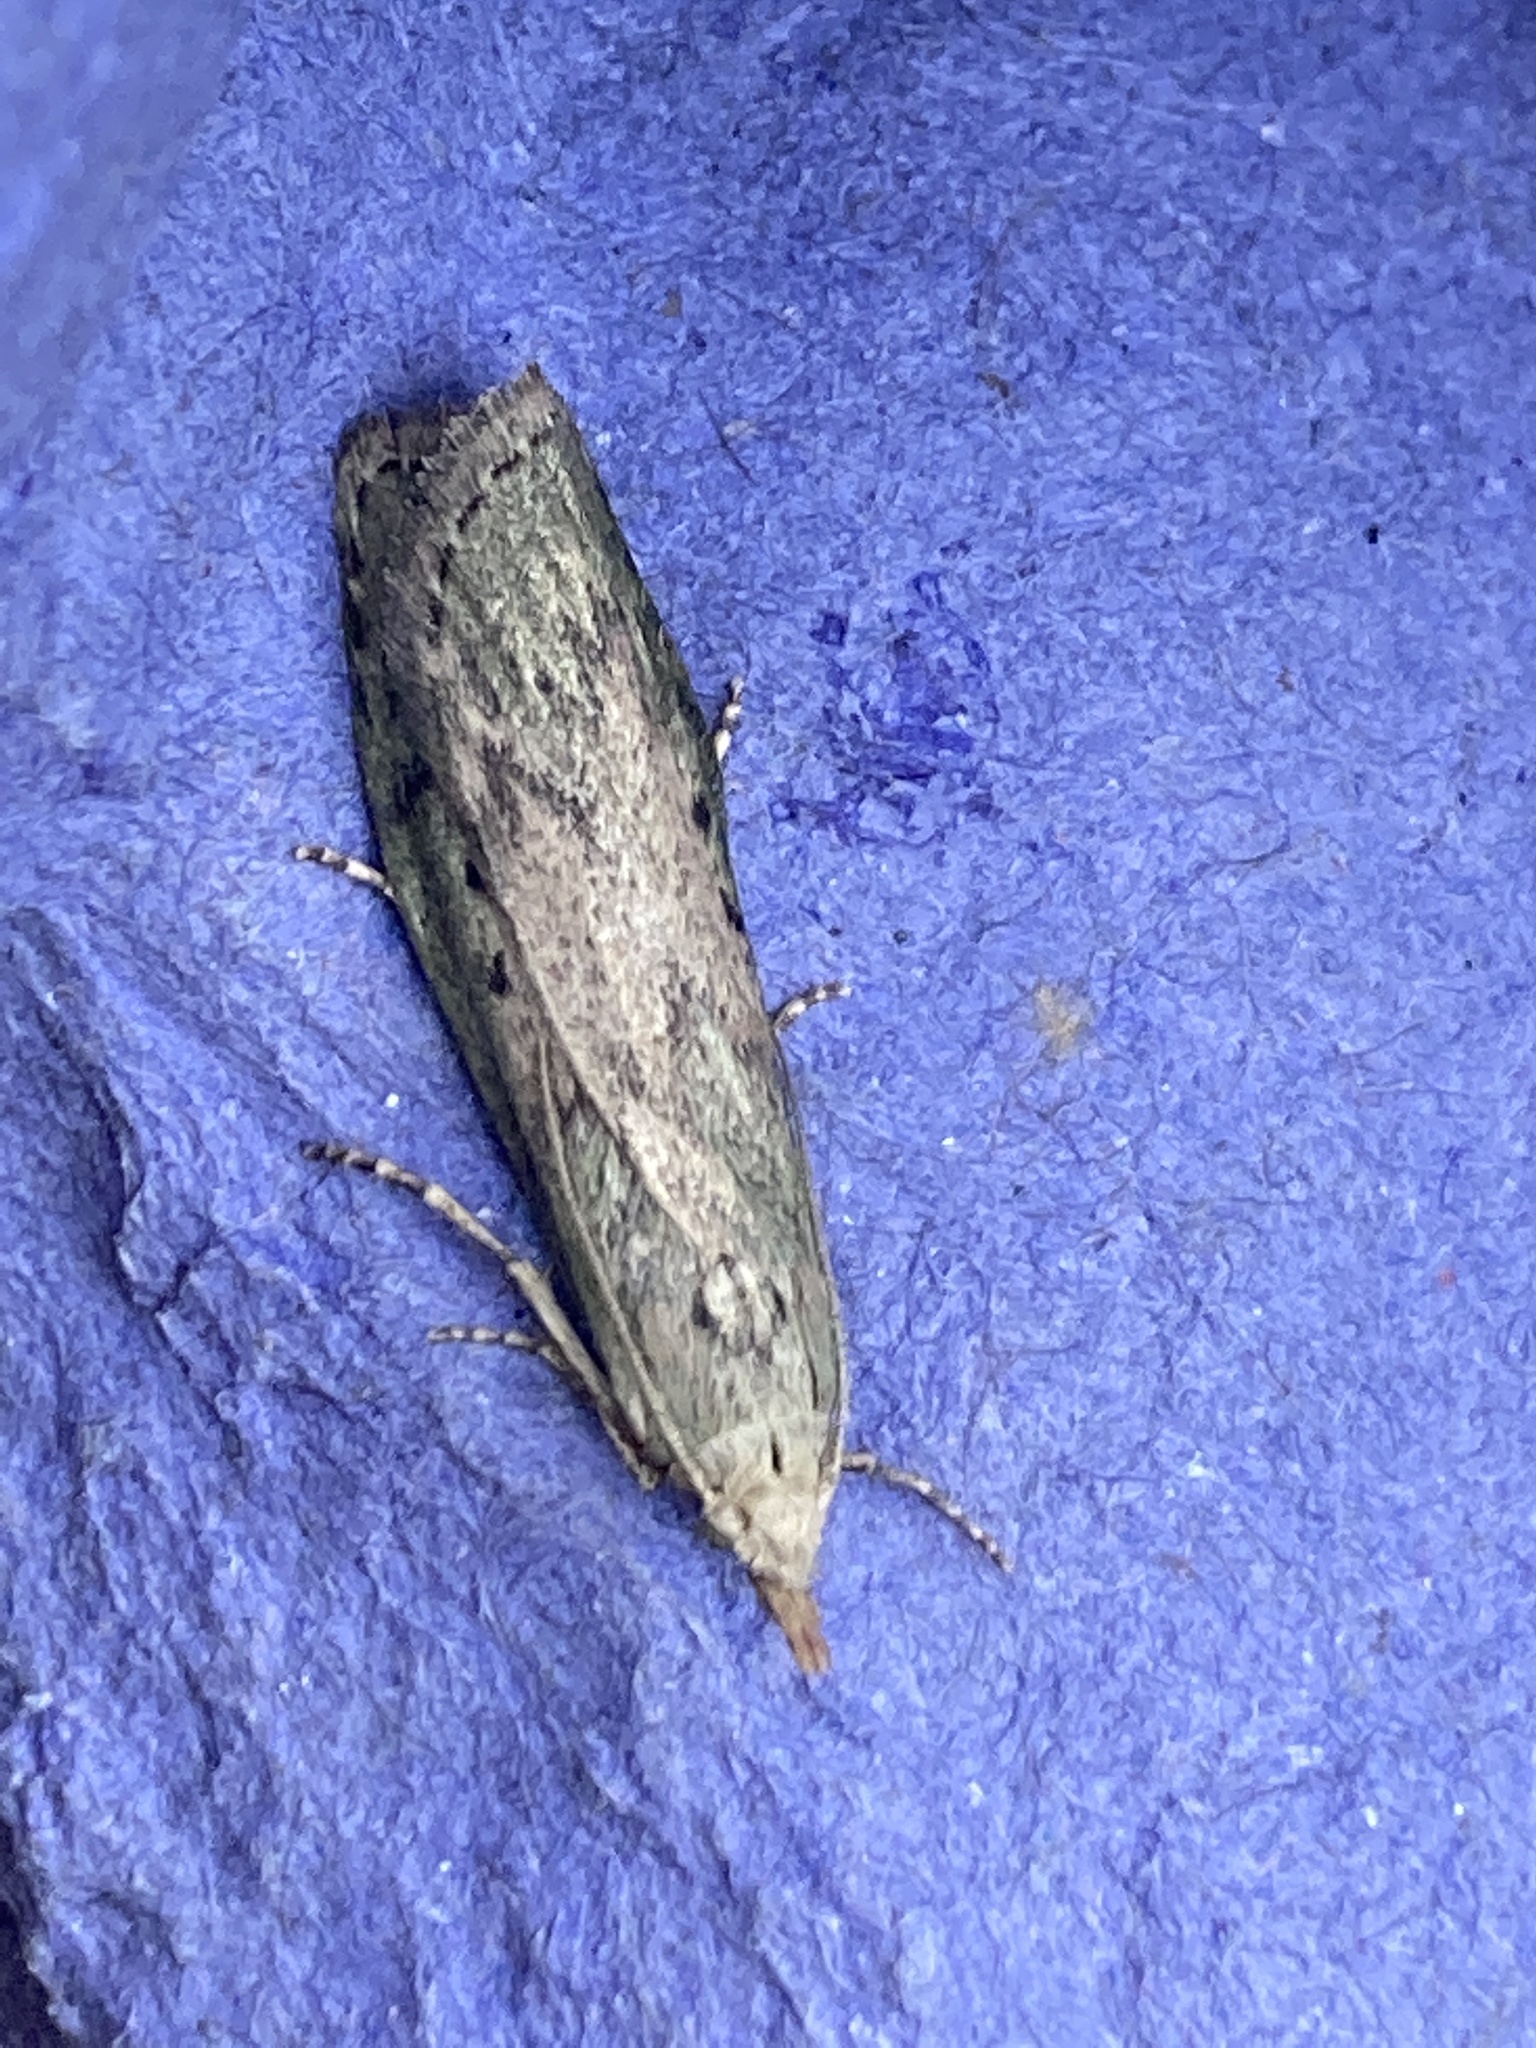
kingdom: Animalia
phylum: Arthropoda
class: Insecta
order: Lepidoptera
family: Pyralidae
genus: Aphomia
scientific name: Aphomia sociella
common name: Bee moth
